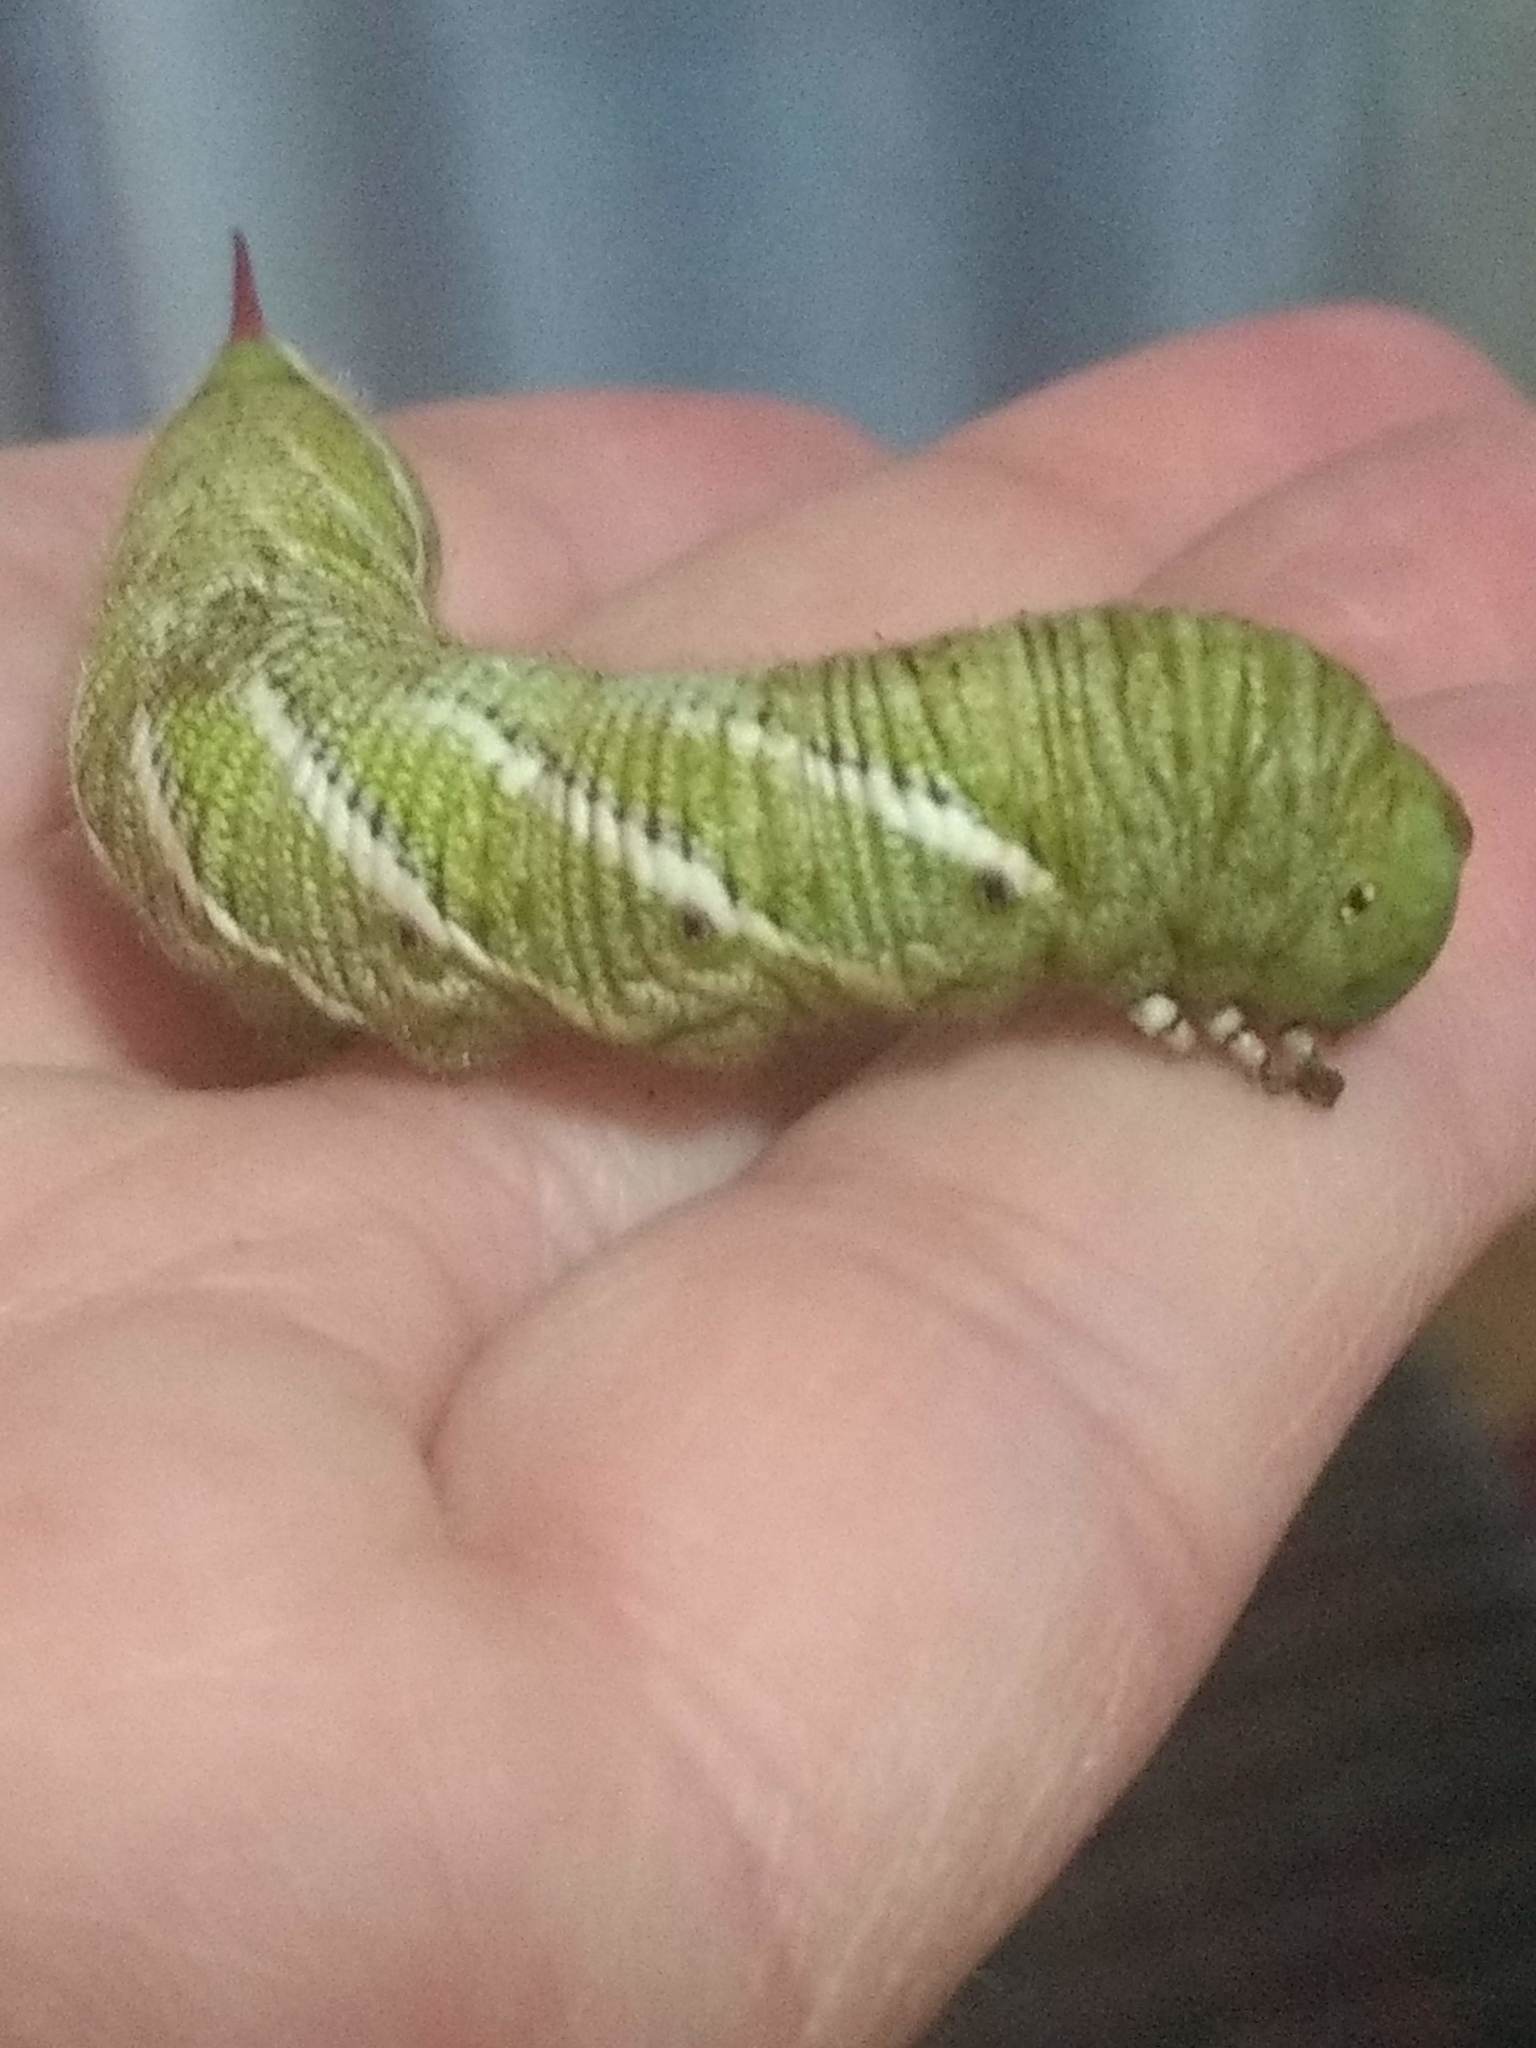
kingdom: Animalia
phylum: Arthropoda
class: Insecta
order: Lepidoptera
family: Sphingidae
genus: Manduca
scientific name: Manduca sexta
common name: Carolina sphinx
